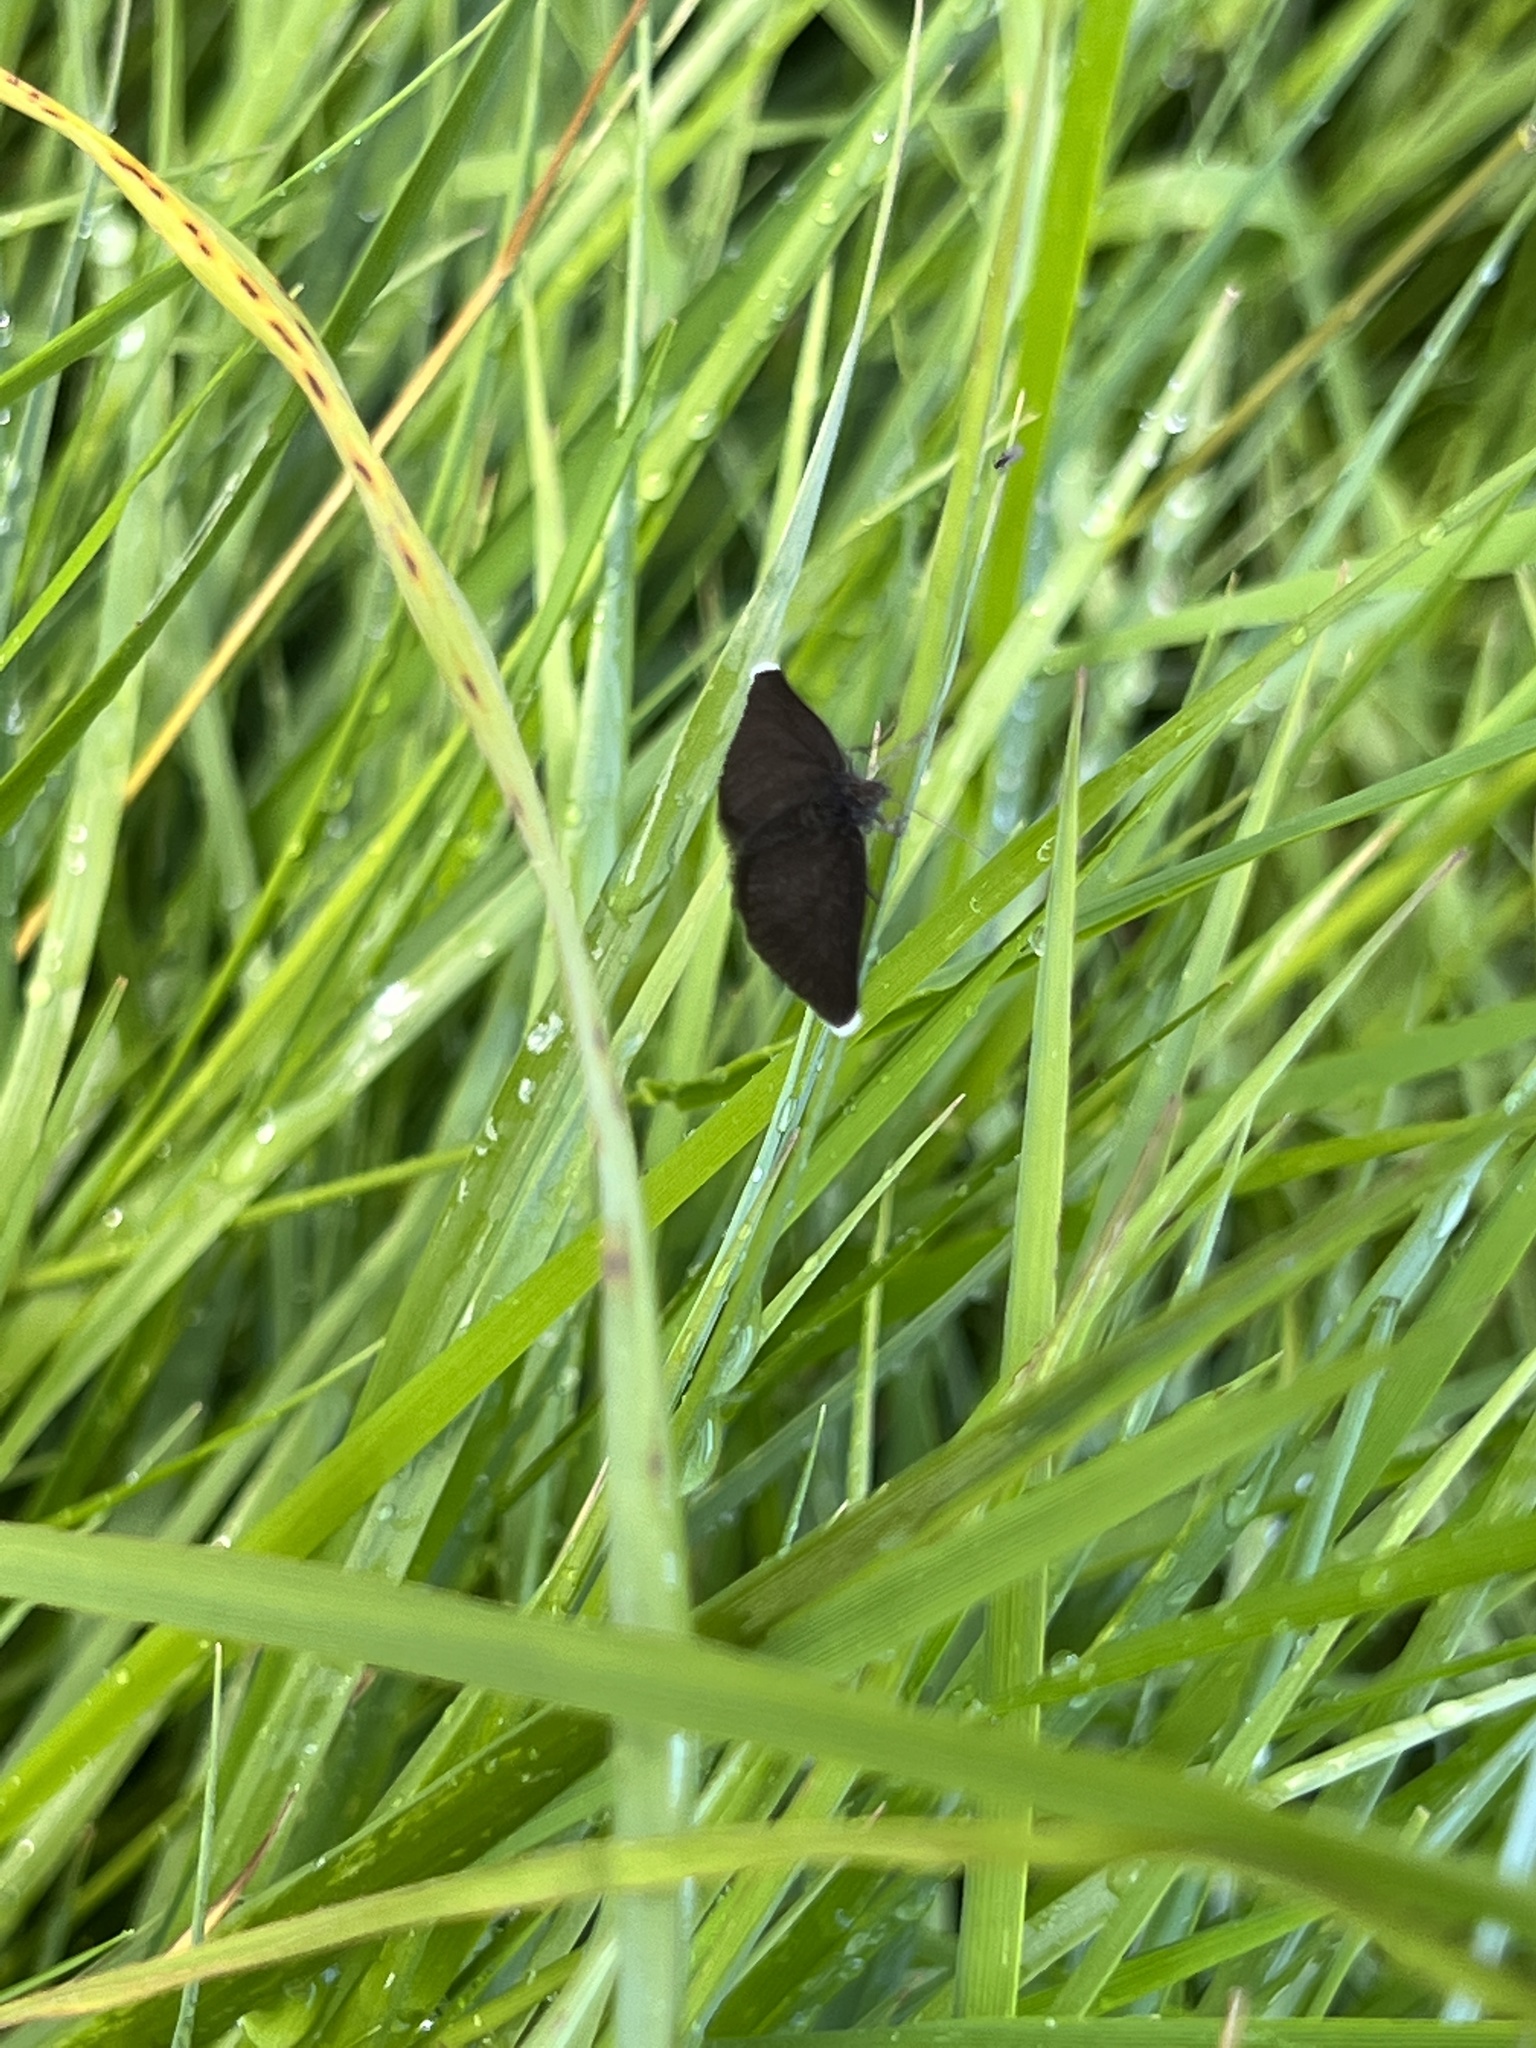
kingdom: Animalia
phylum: Arthropoda
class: Insecta
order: Lepidoptera
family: Geometridae
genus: Odezia
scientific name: Odezia atrata
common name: Chimney sweeper
